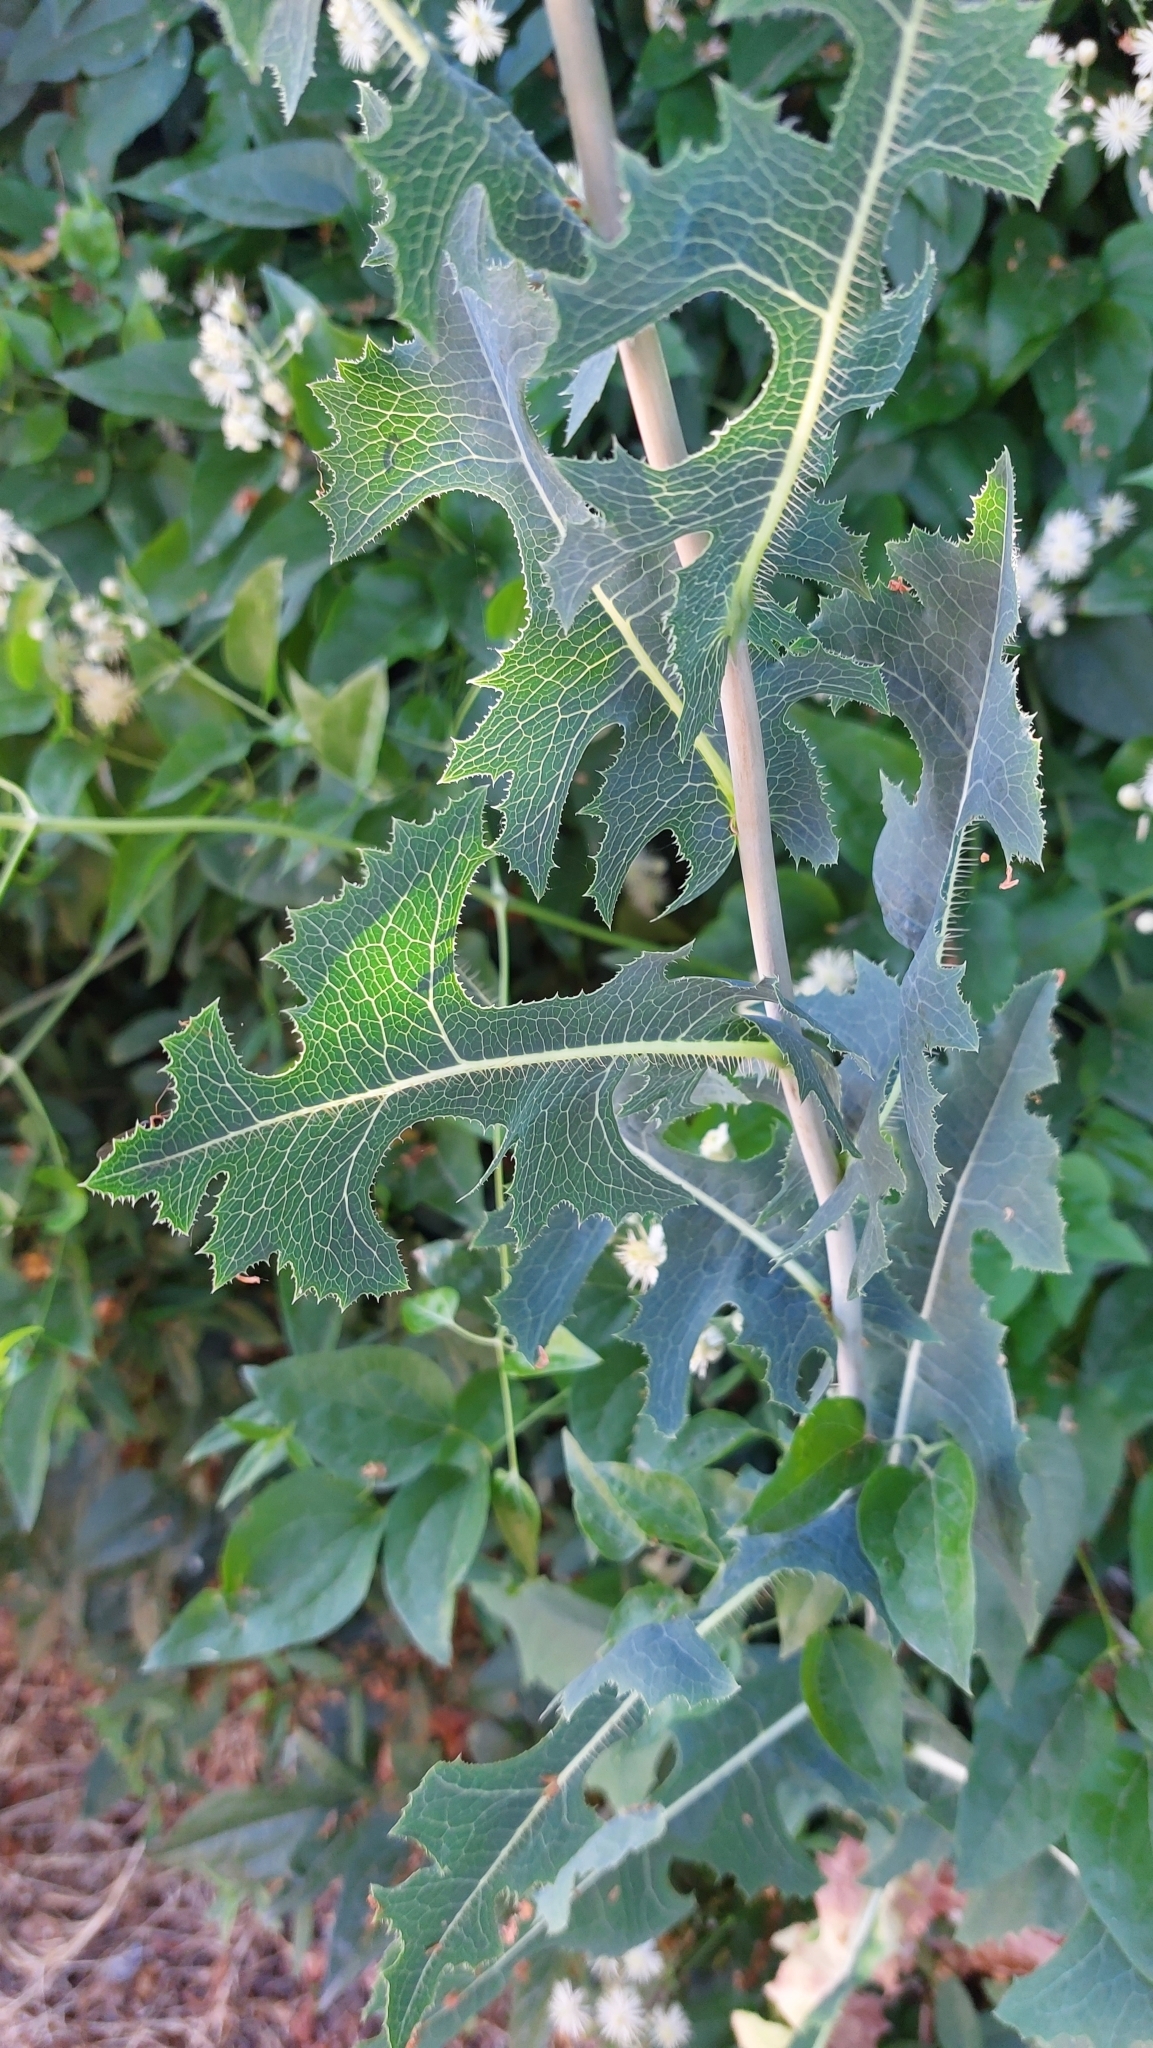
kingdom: Plantae
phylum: Tracheophyta
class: Magnoliopsida
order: Asterales
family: Asteraceae
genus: Lactuca
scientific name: Lactuca serriola
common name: Prickly lettuce
